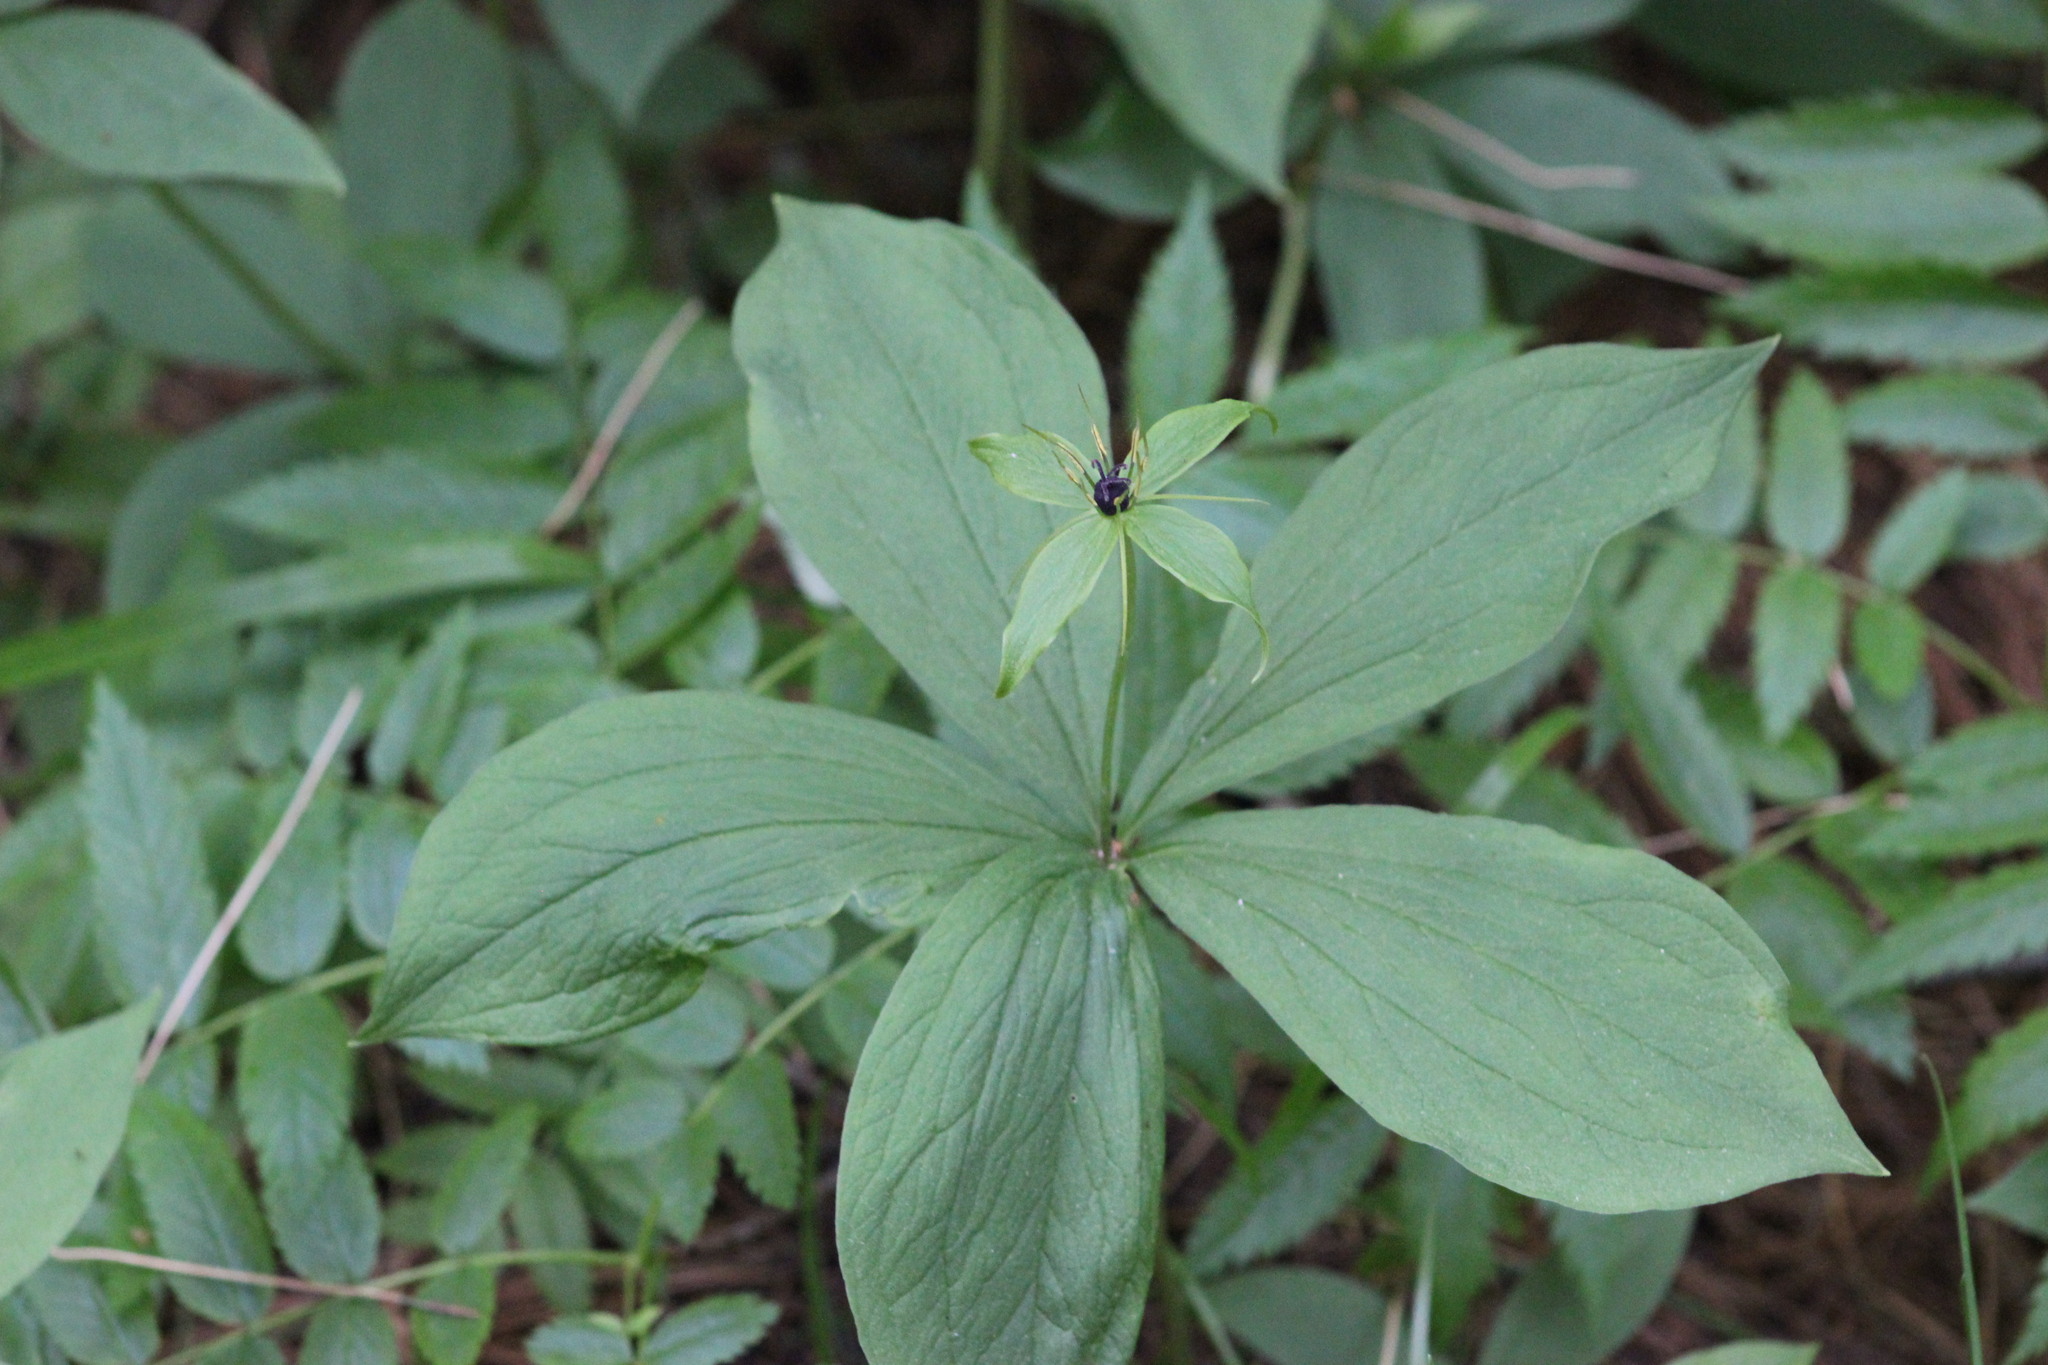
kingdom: Plantae
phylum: Tracheophyta
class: Liliopsida
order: Liliales
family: Melanthiaceae
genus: Paris
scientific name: Paris quadrifolia
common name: Herb-paris
